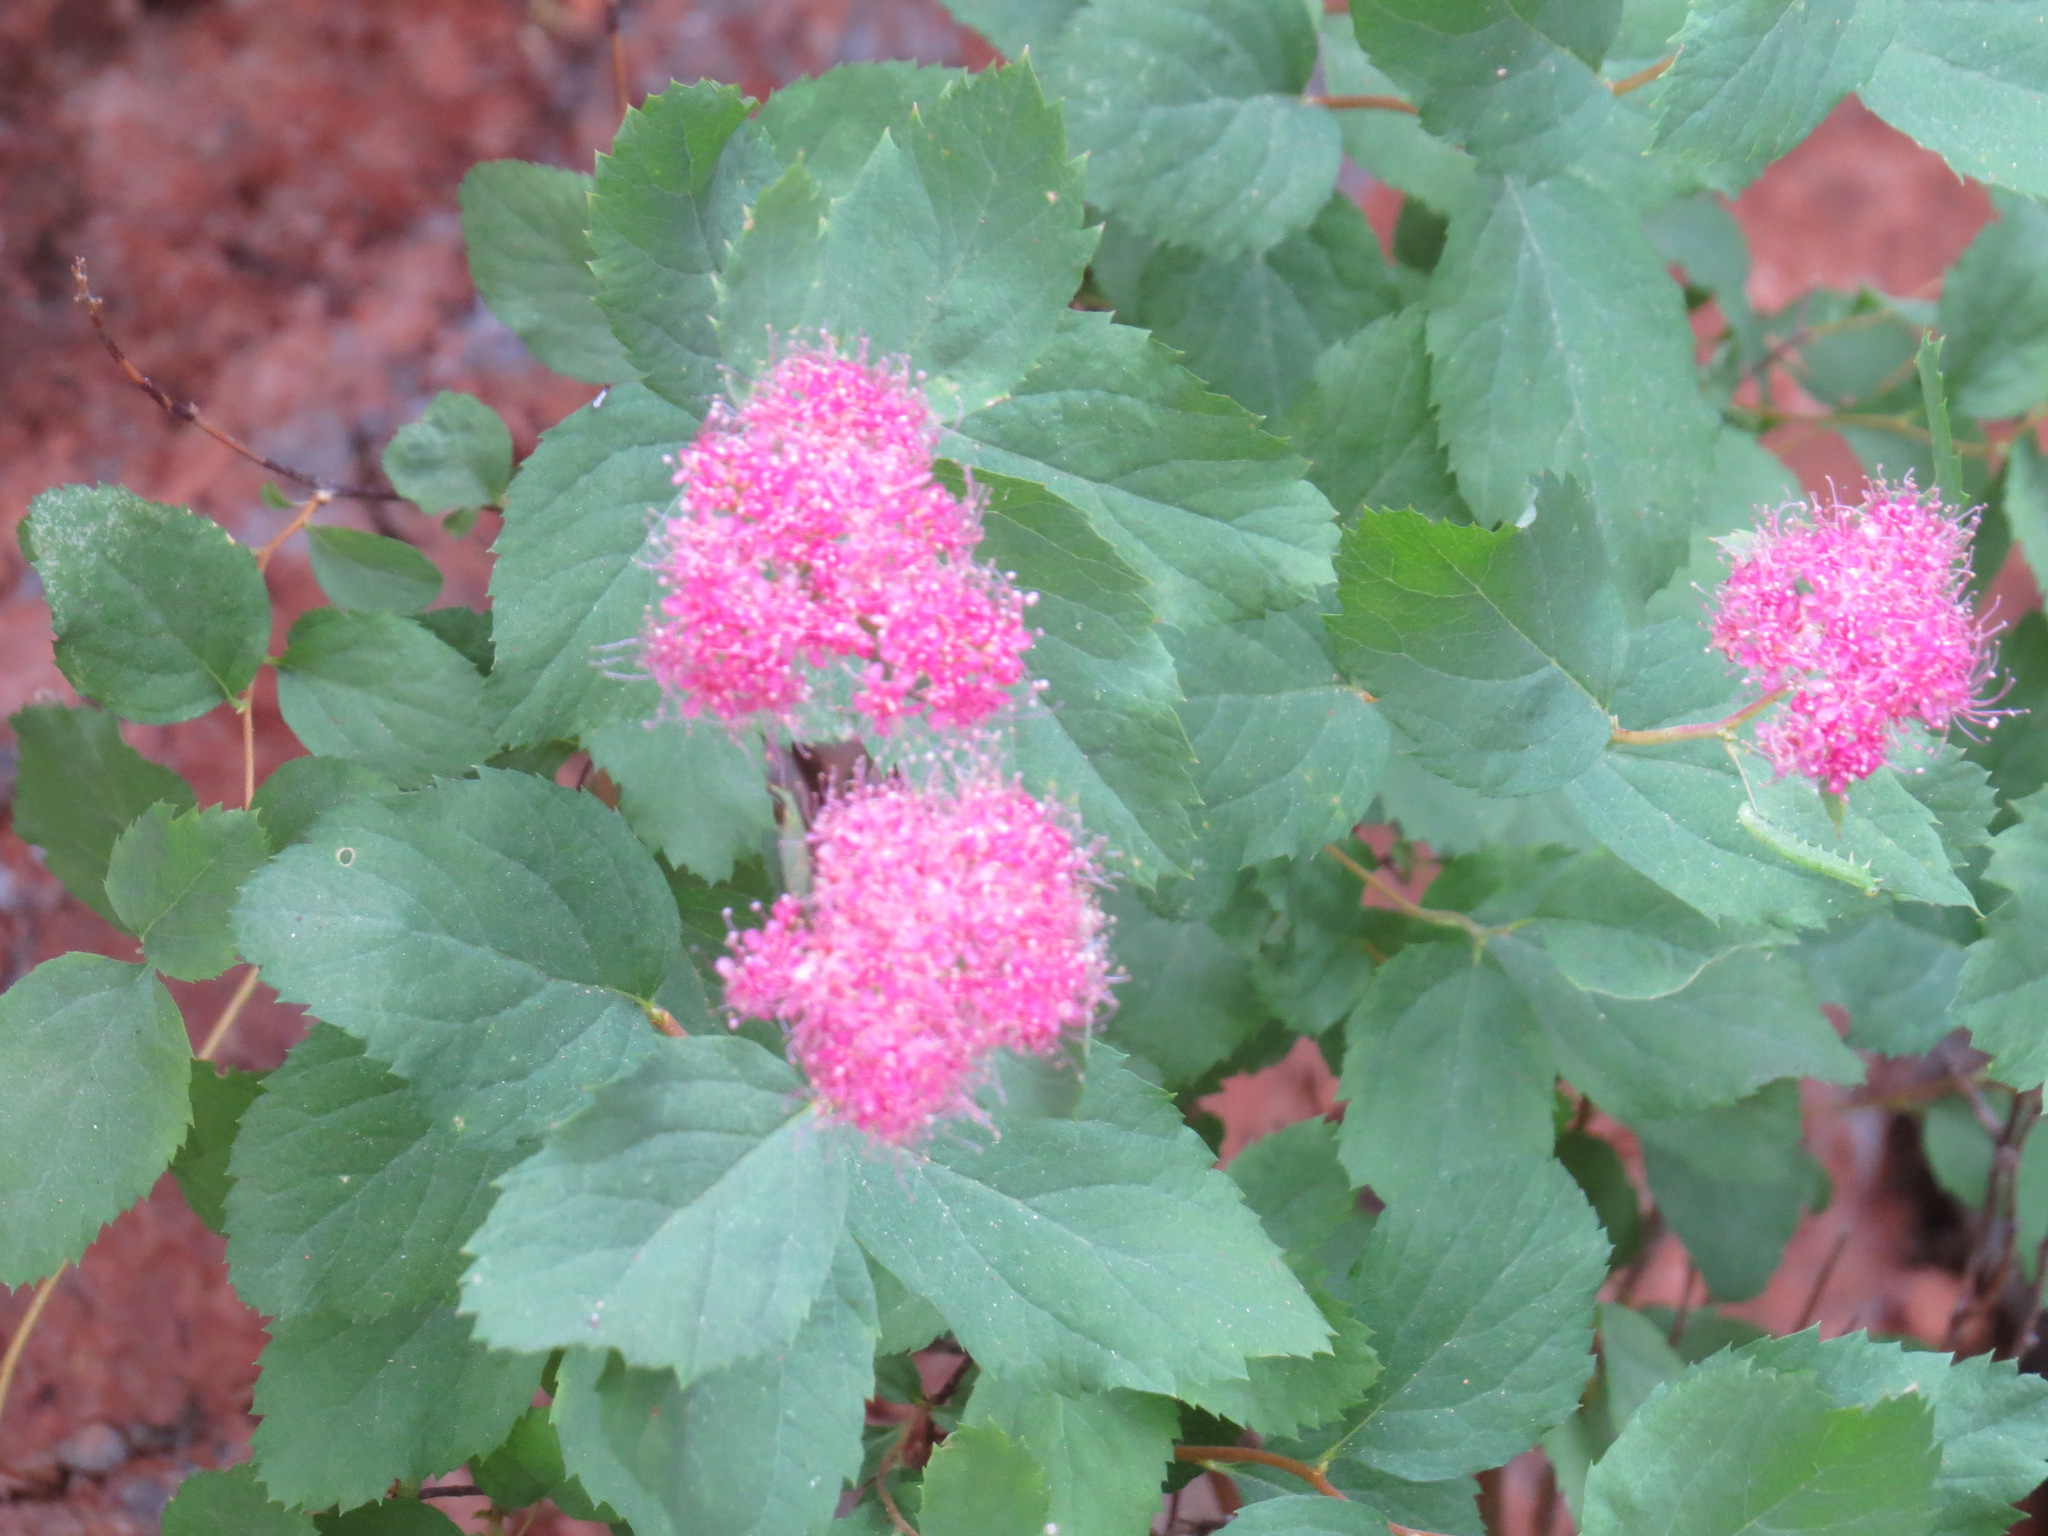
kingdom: Plantae
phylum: Tracheophyta
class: Magnoliopsida
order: Rosales
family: Rosaceae
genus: Spiraea
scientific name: Spiraea splendens
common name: Subalpine meadowsweet
